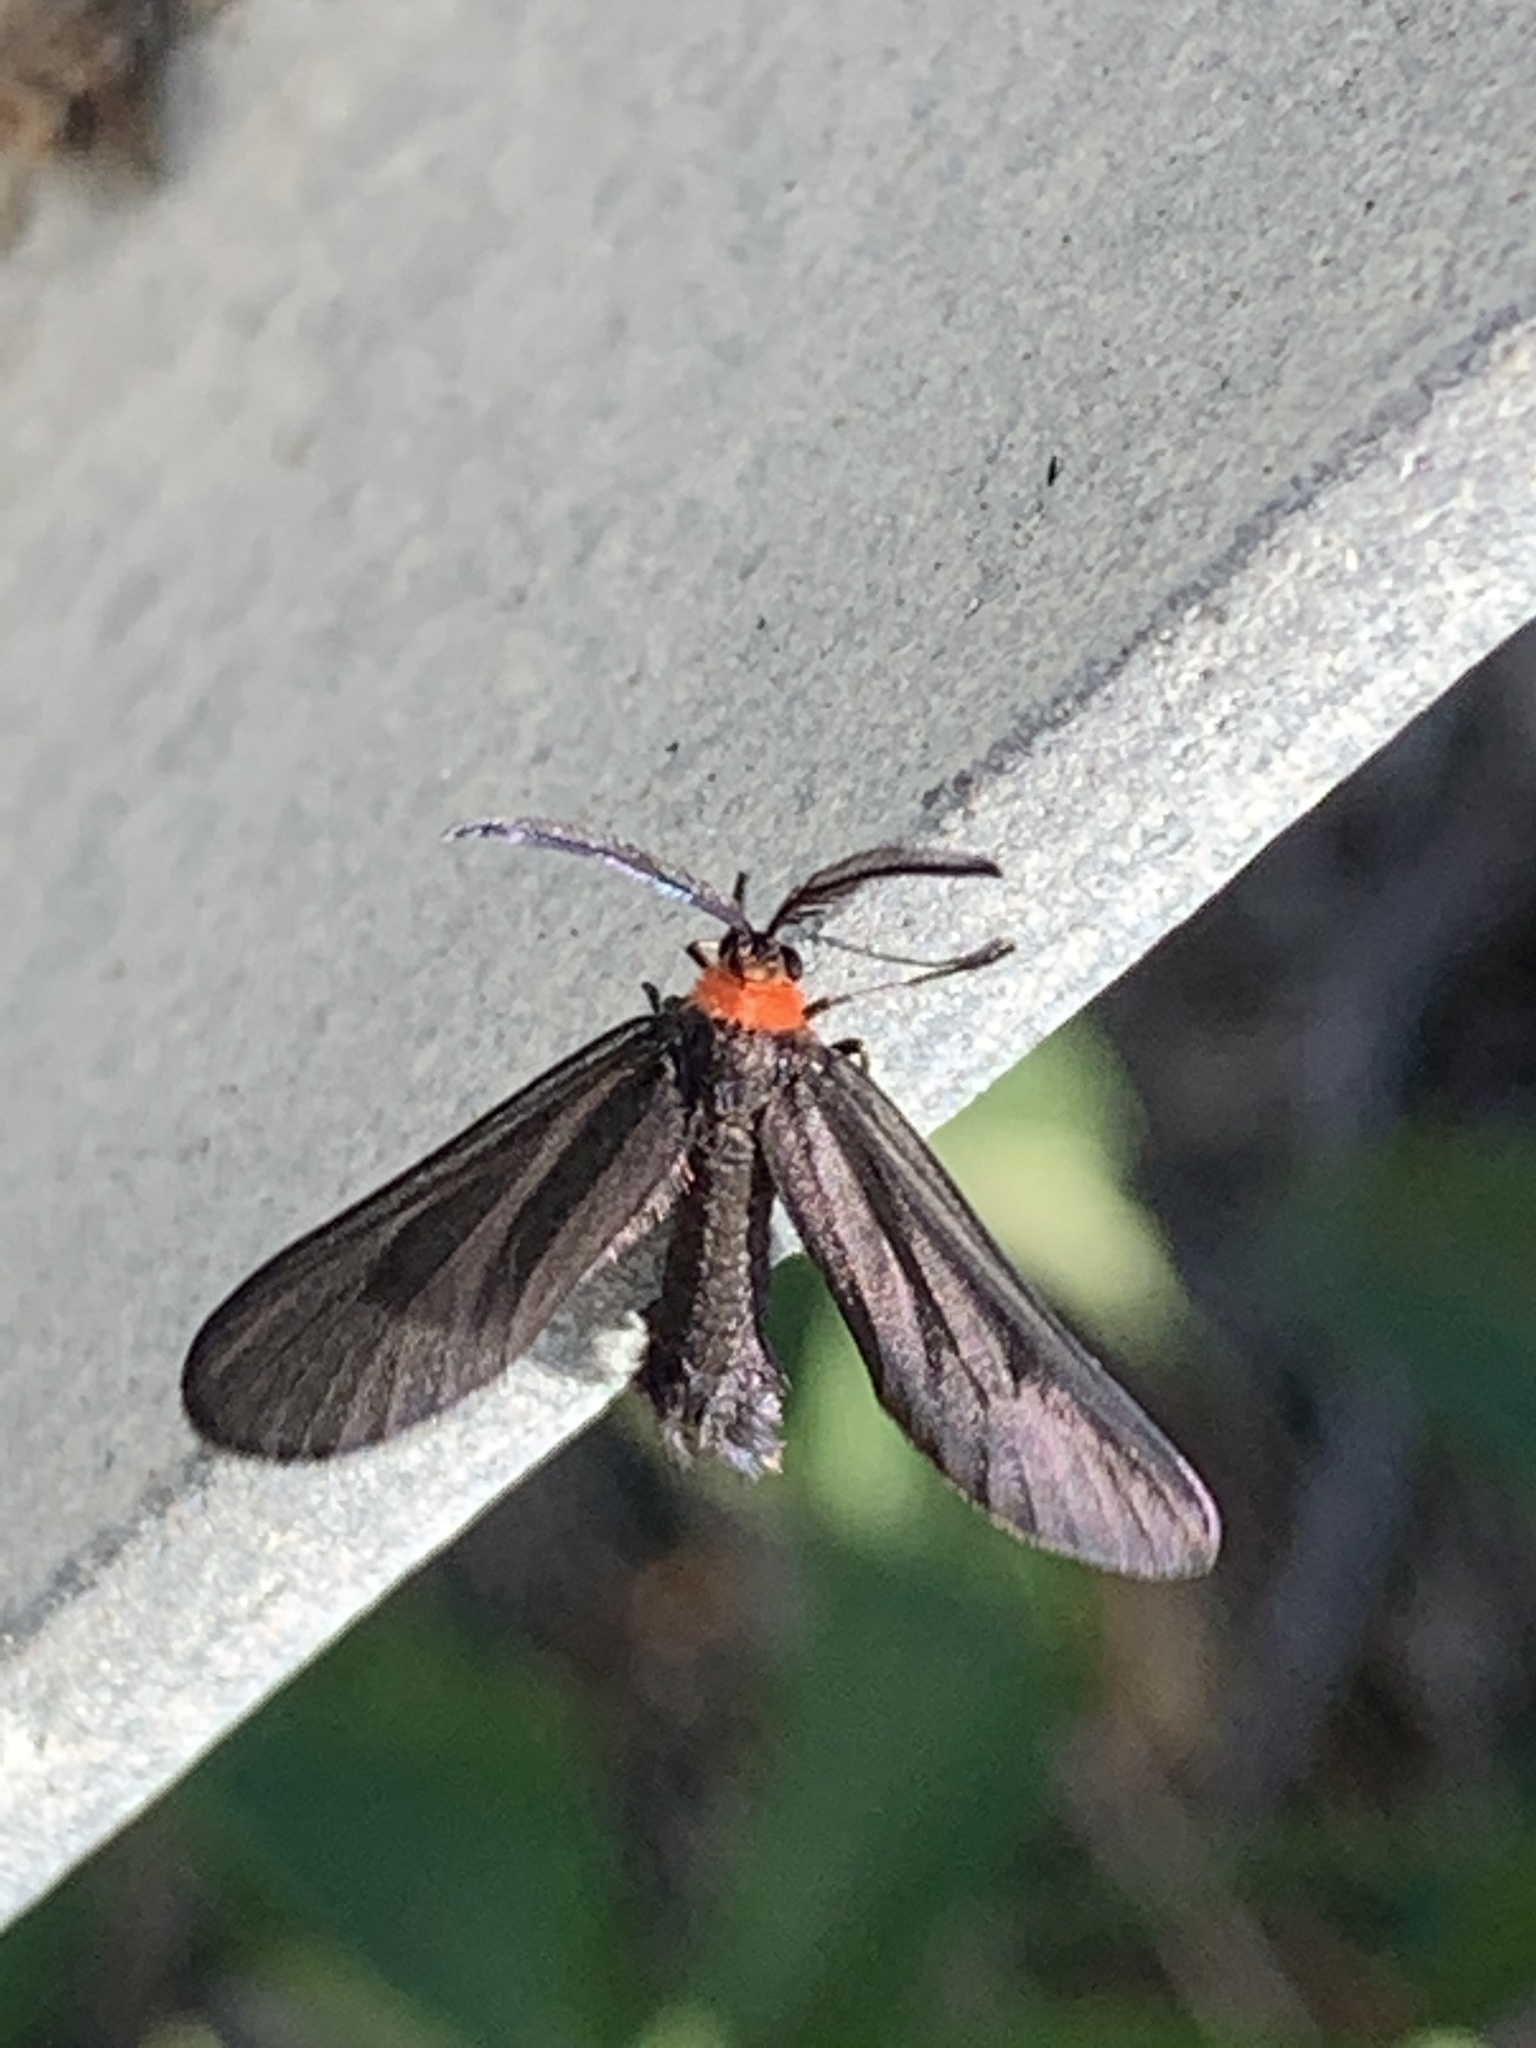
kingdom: Animalia
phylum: Arthropoda
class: Insecta
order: Lepidoptera
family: Zygaenidae
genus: Harrisina
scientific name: Harrisina americana
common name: Grapeleaf skeletonizer moth
